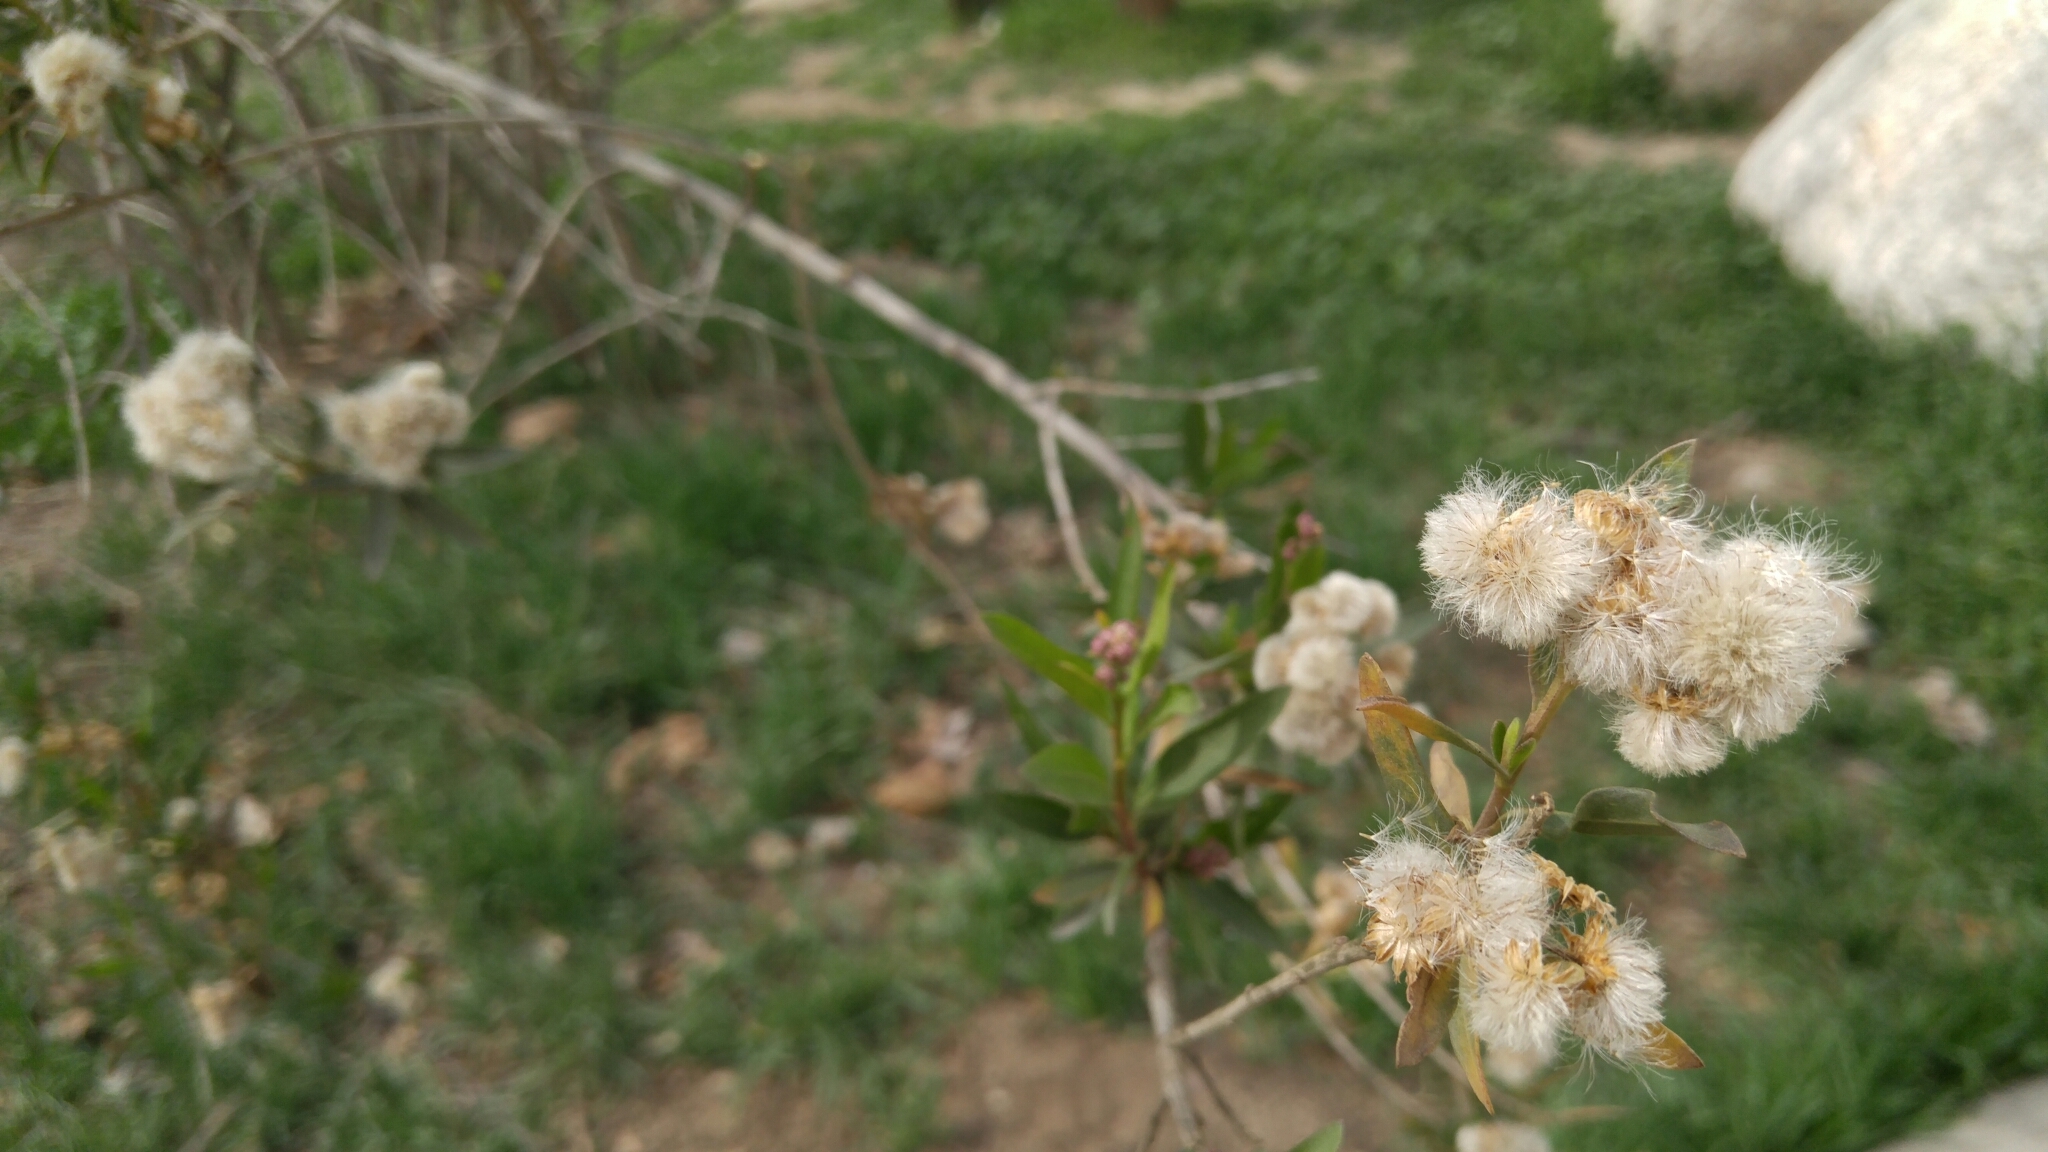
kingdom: Plantae
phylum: Tracheophyta
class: Magnoliopsida
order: Asterales
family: Asteraceae
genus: Baccharis
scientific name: Baccharis salicifolia
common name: Sticky baccharis
